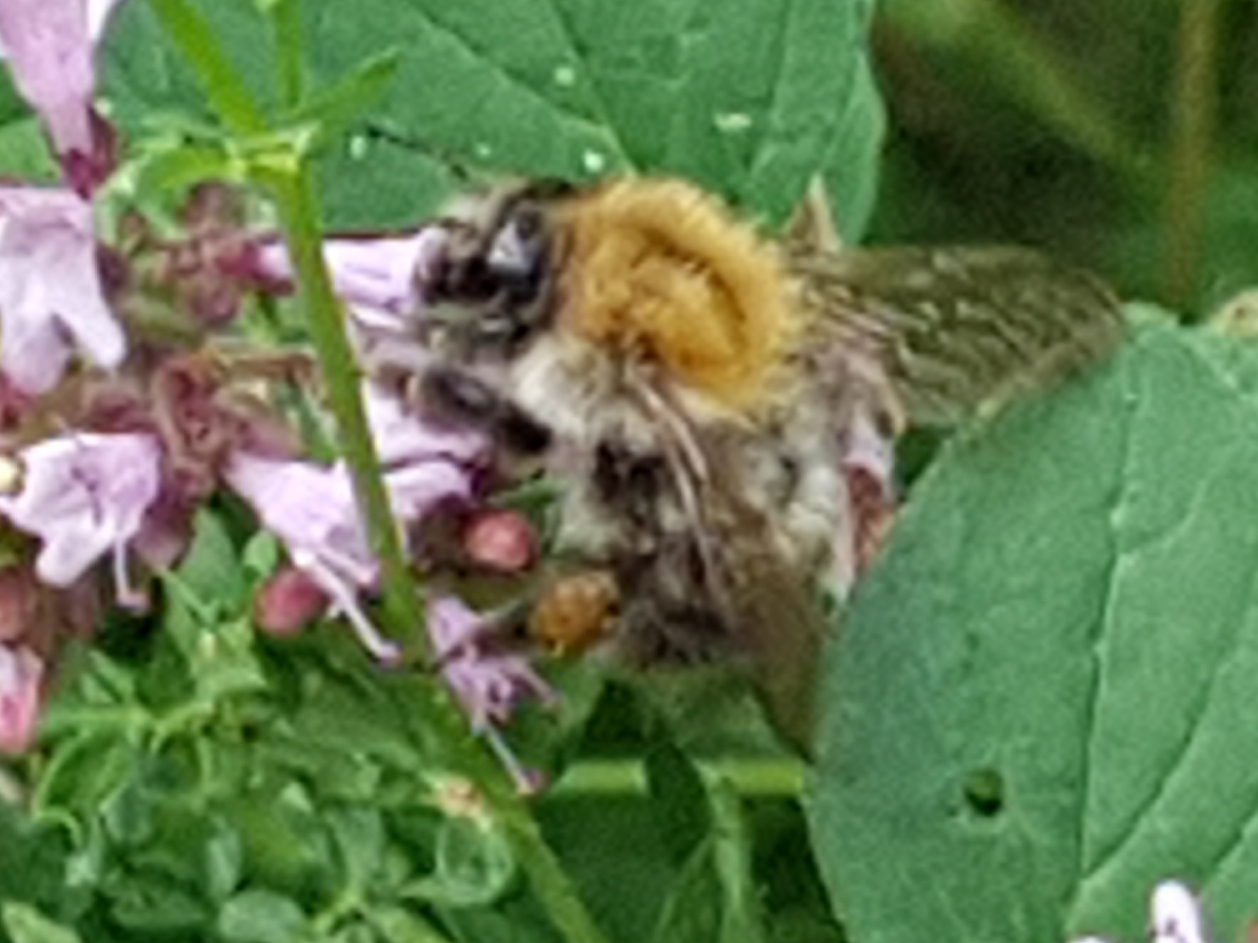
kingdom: Animalia
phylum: Arthropoda
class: Insecta
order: Hymenoptera
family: Apidae
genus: Bombus
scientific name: Bombus pascuorum
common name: Common carder bee
